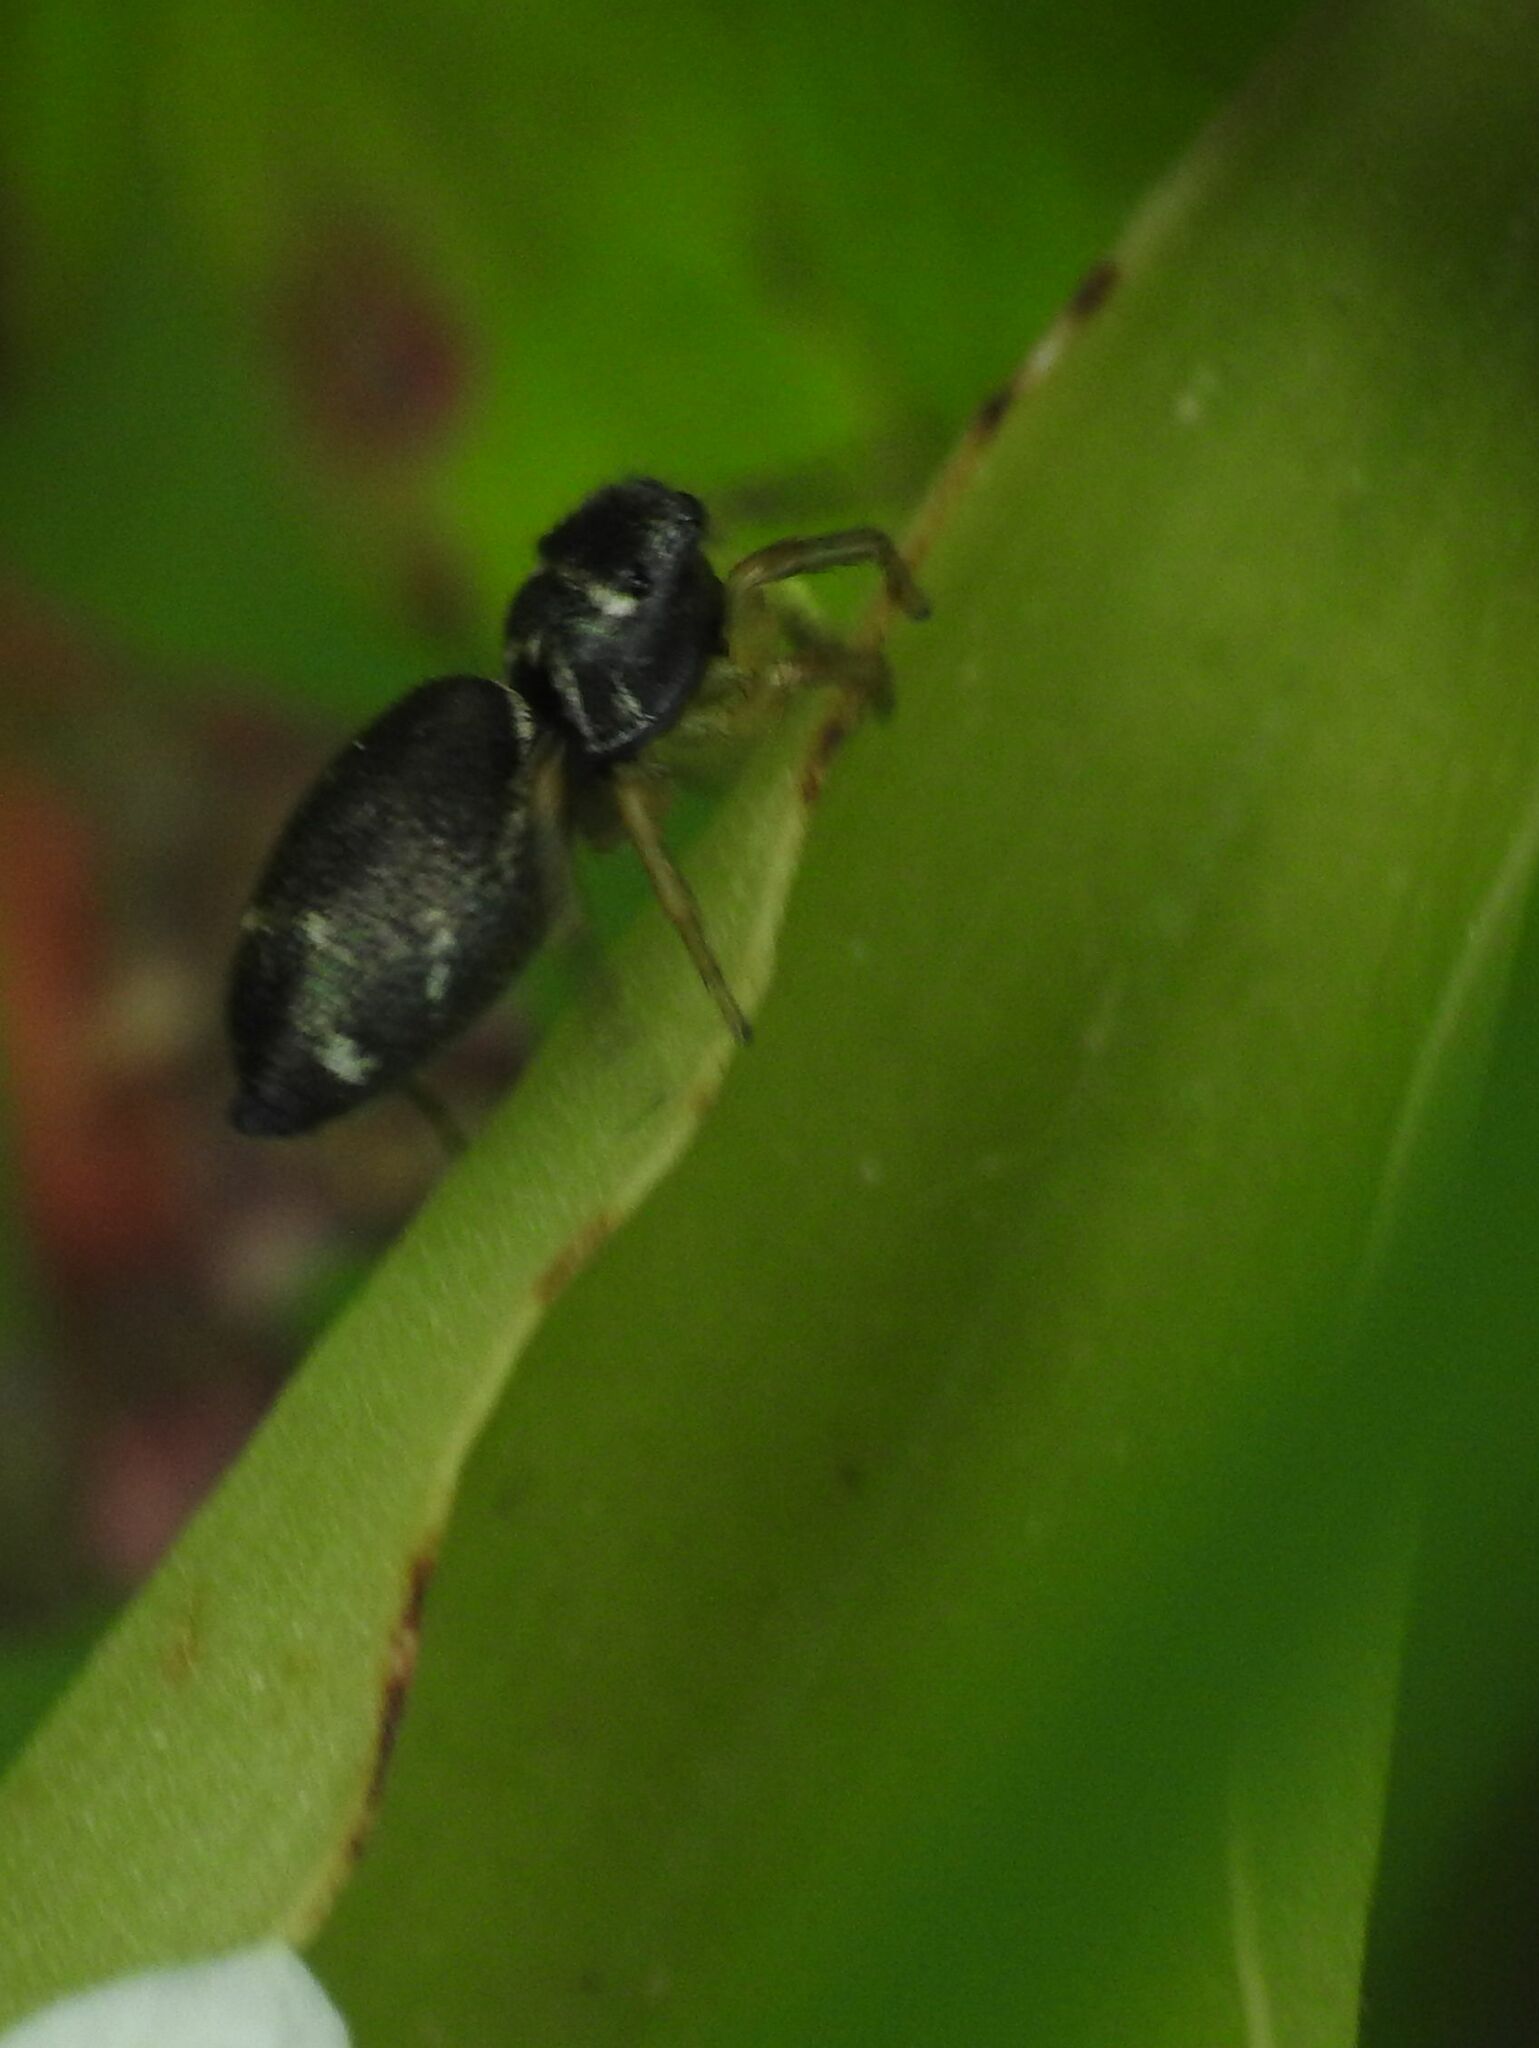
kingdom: Animalia
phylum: Arthropoda
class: Arachnida
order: Araneae
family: Salticidae
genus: Heliophanus
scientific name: Heliophanus cupreus
